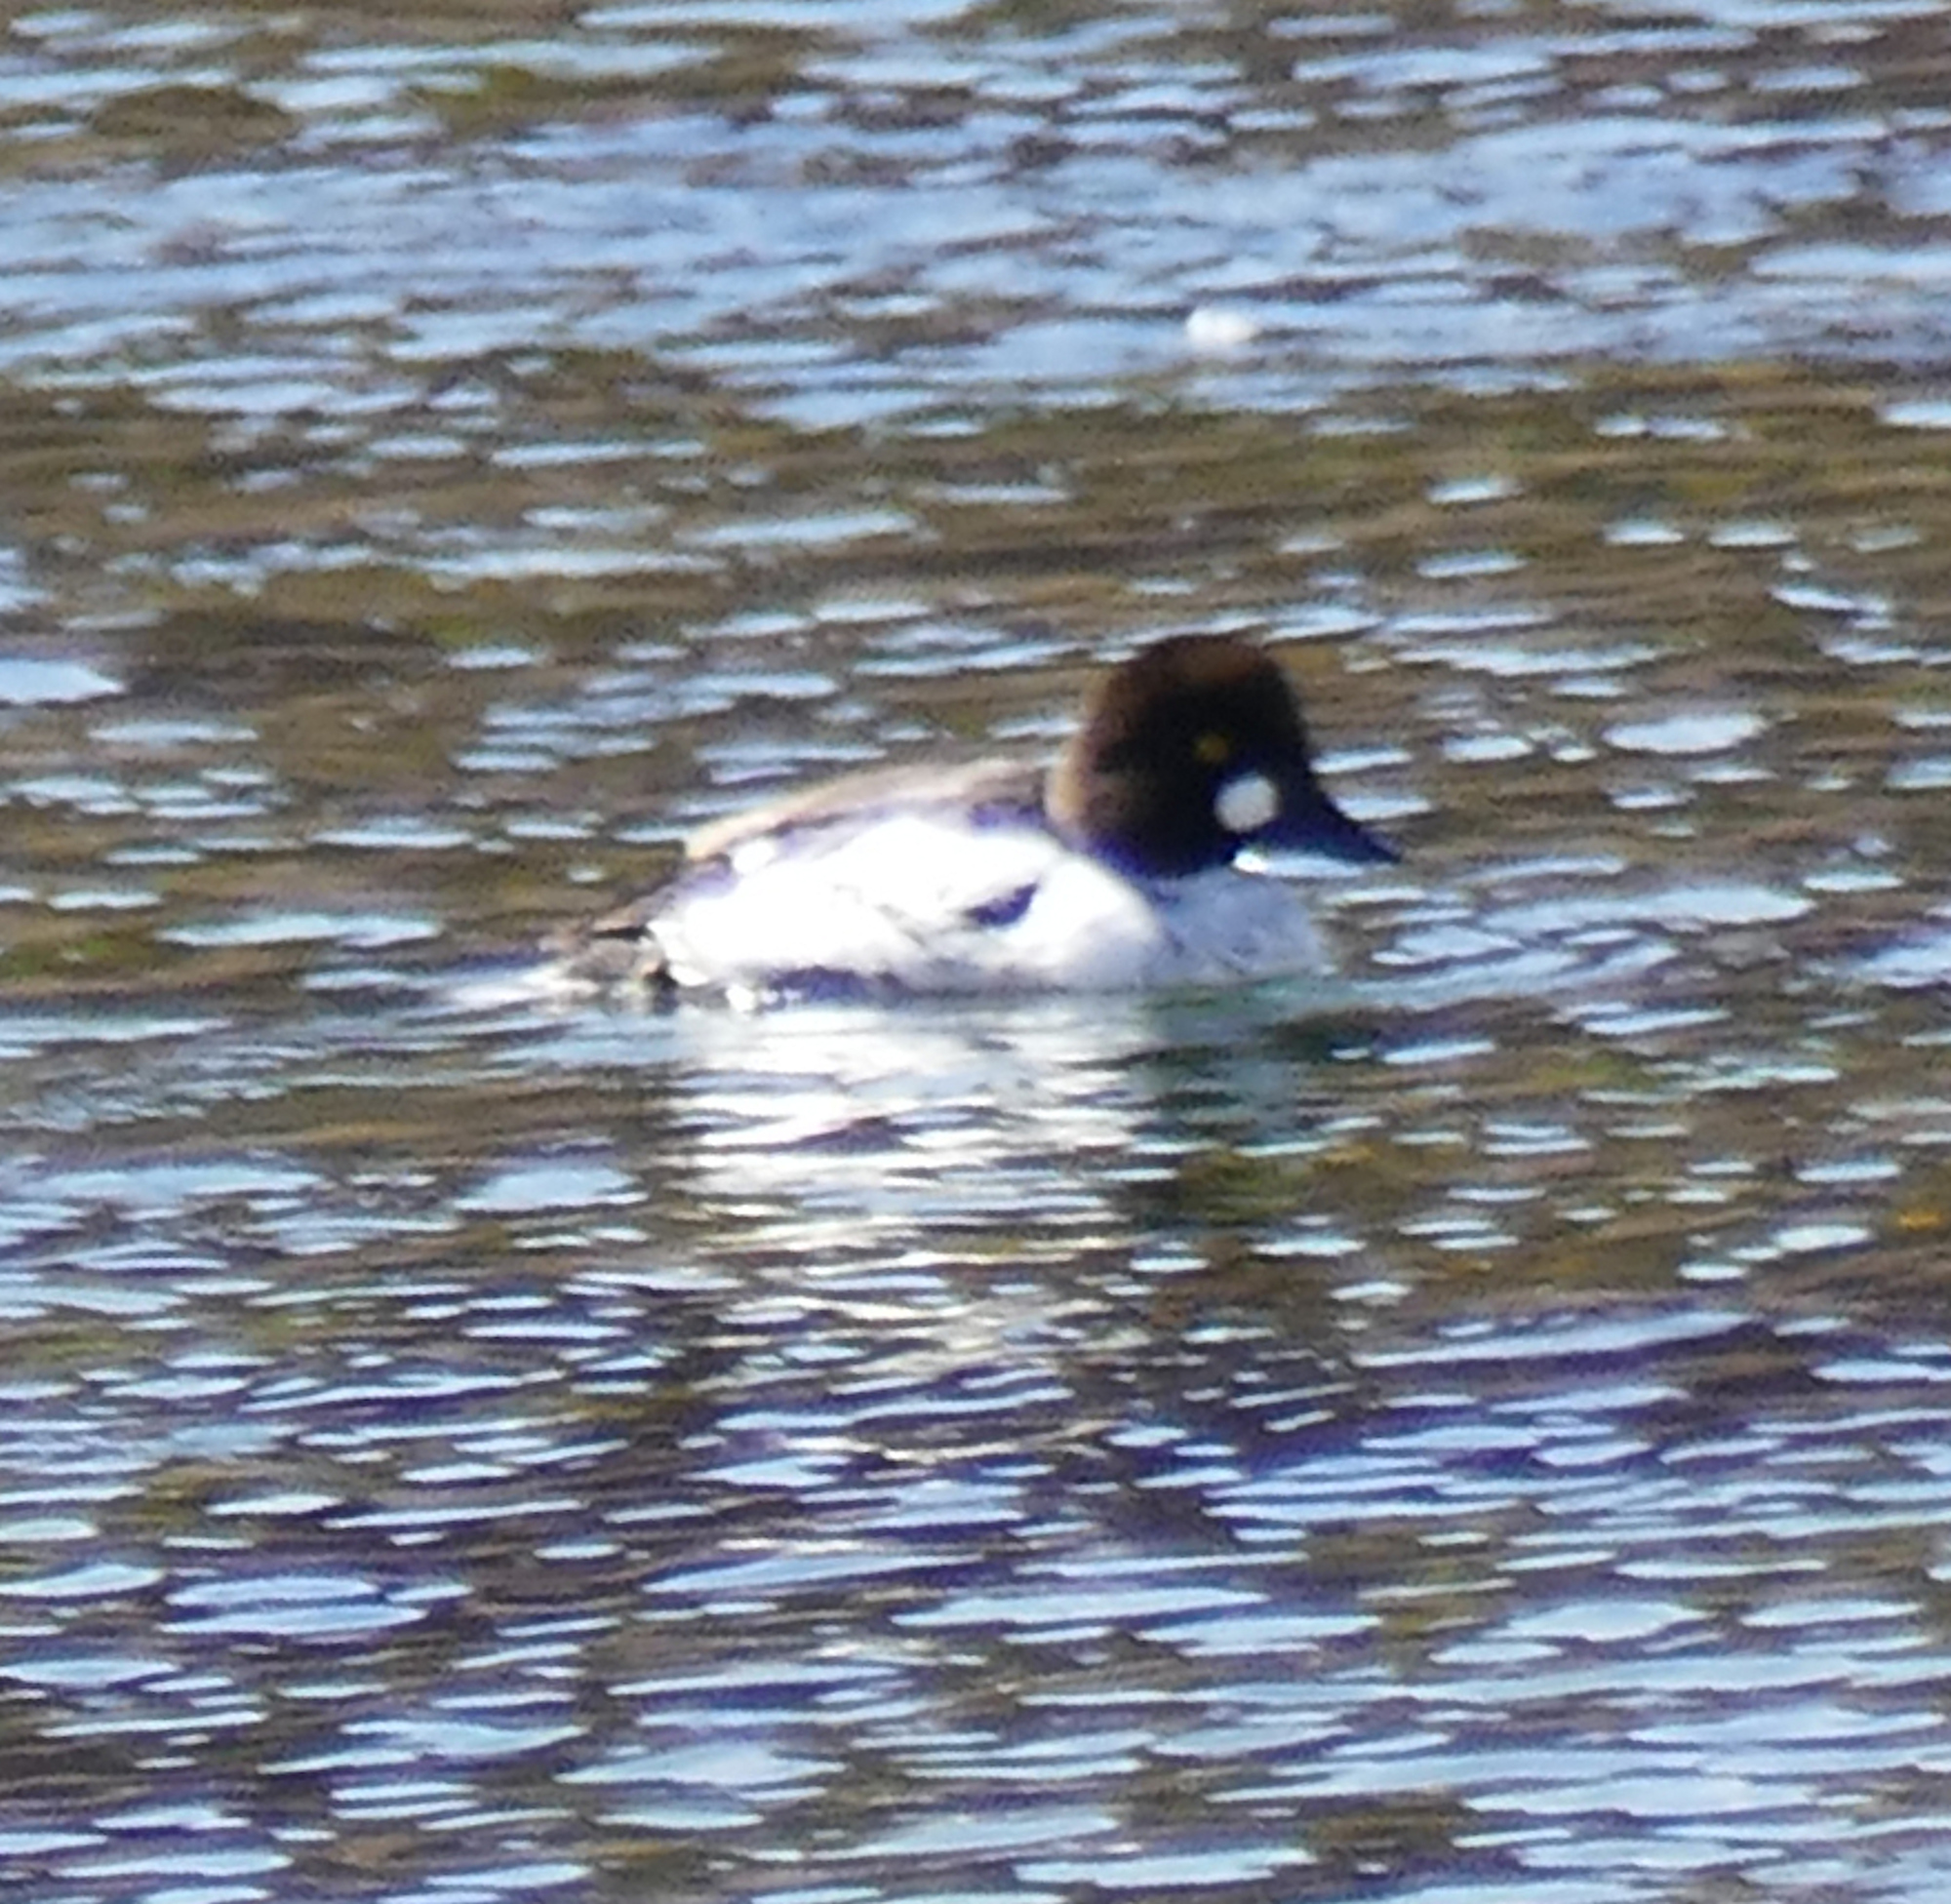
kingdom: Animalia
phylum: Chordata
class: Aves
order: Anseriformes
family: Anatidae
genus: Bucephala
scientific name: Bucephala clangula
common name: Common goldeneye
